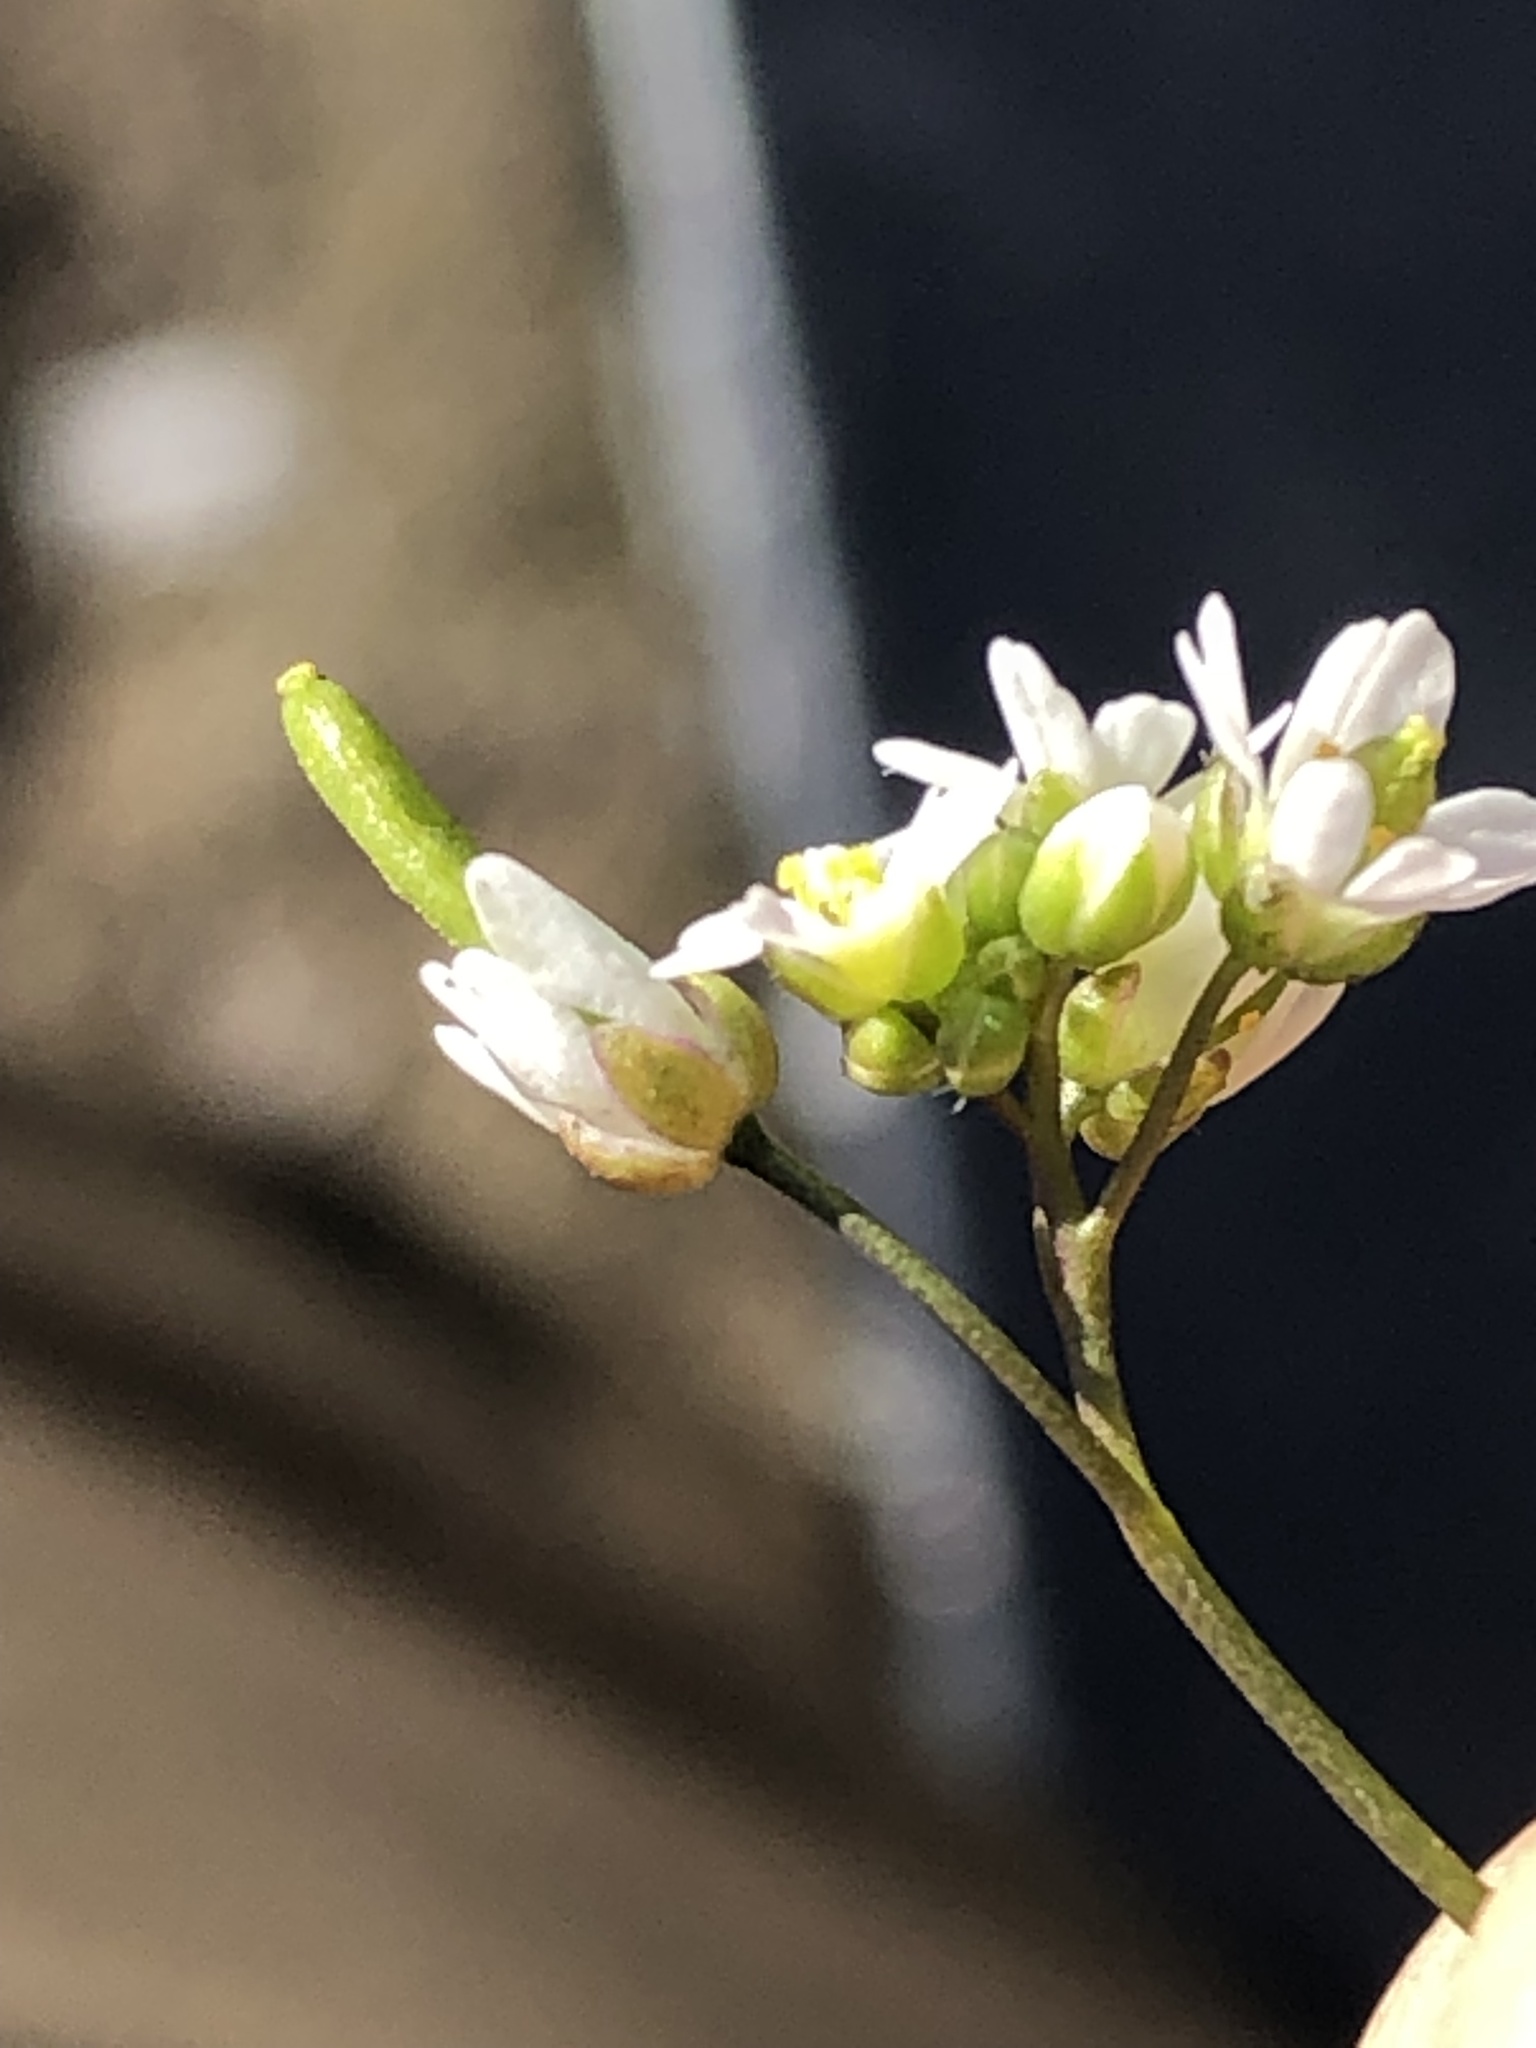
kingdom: Plantae
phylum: Tracheophyta
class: Magnoliopsida
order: Brassicales
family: Brassicaceae
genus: Draba
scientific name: Draba verna
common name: Spring draba
